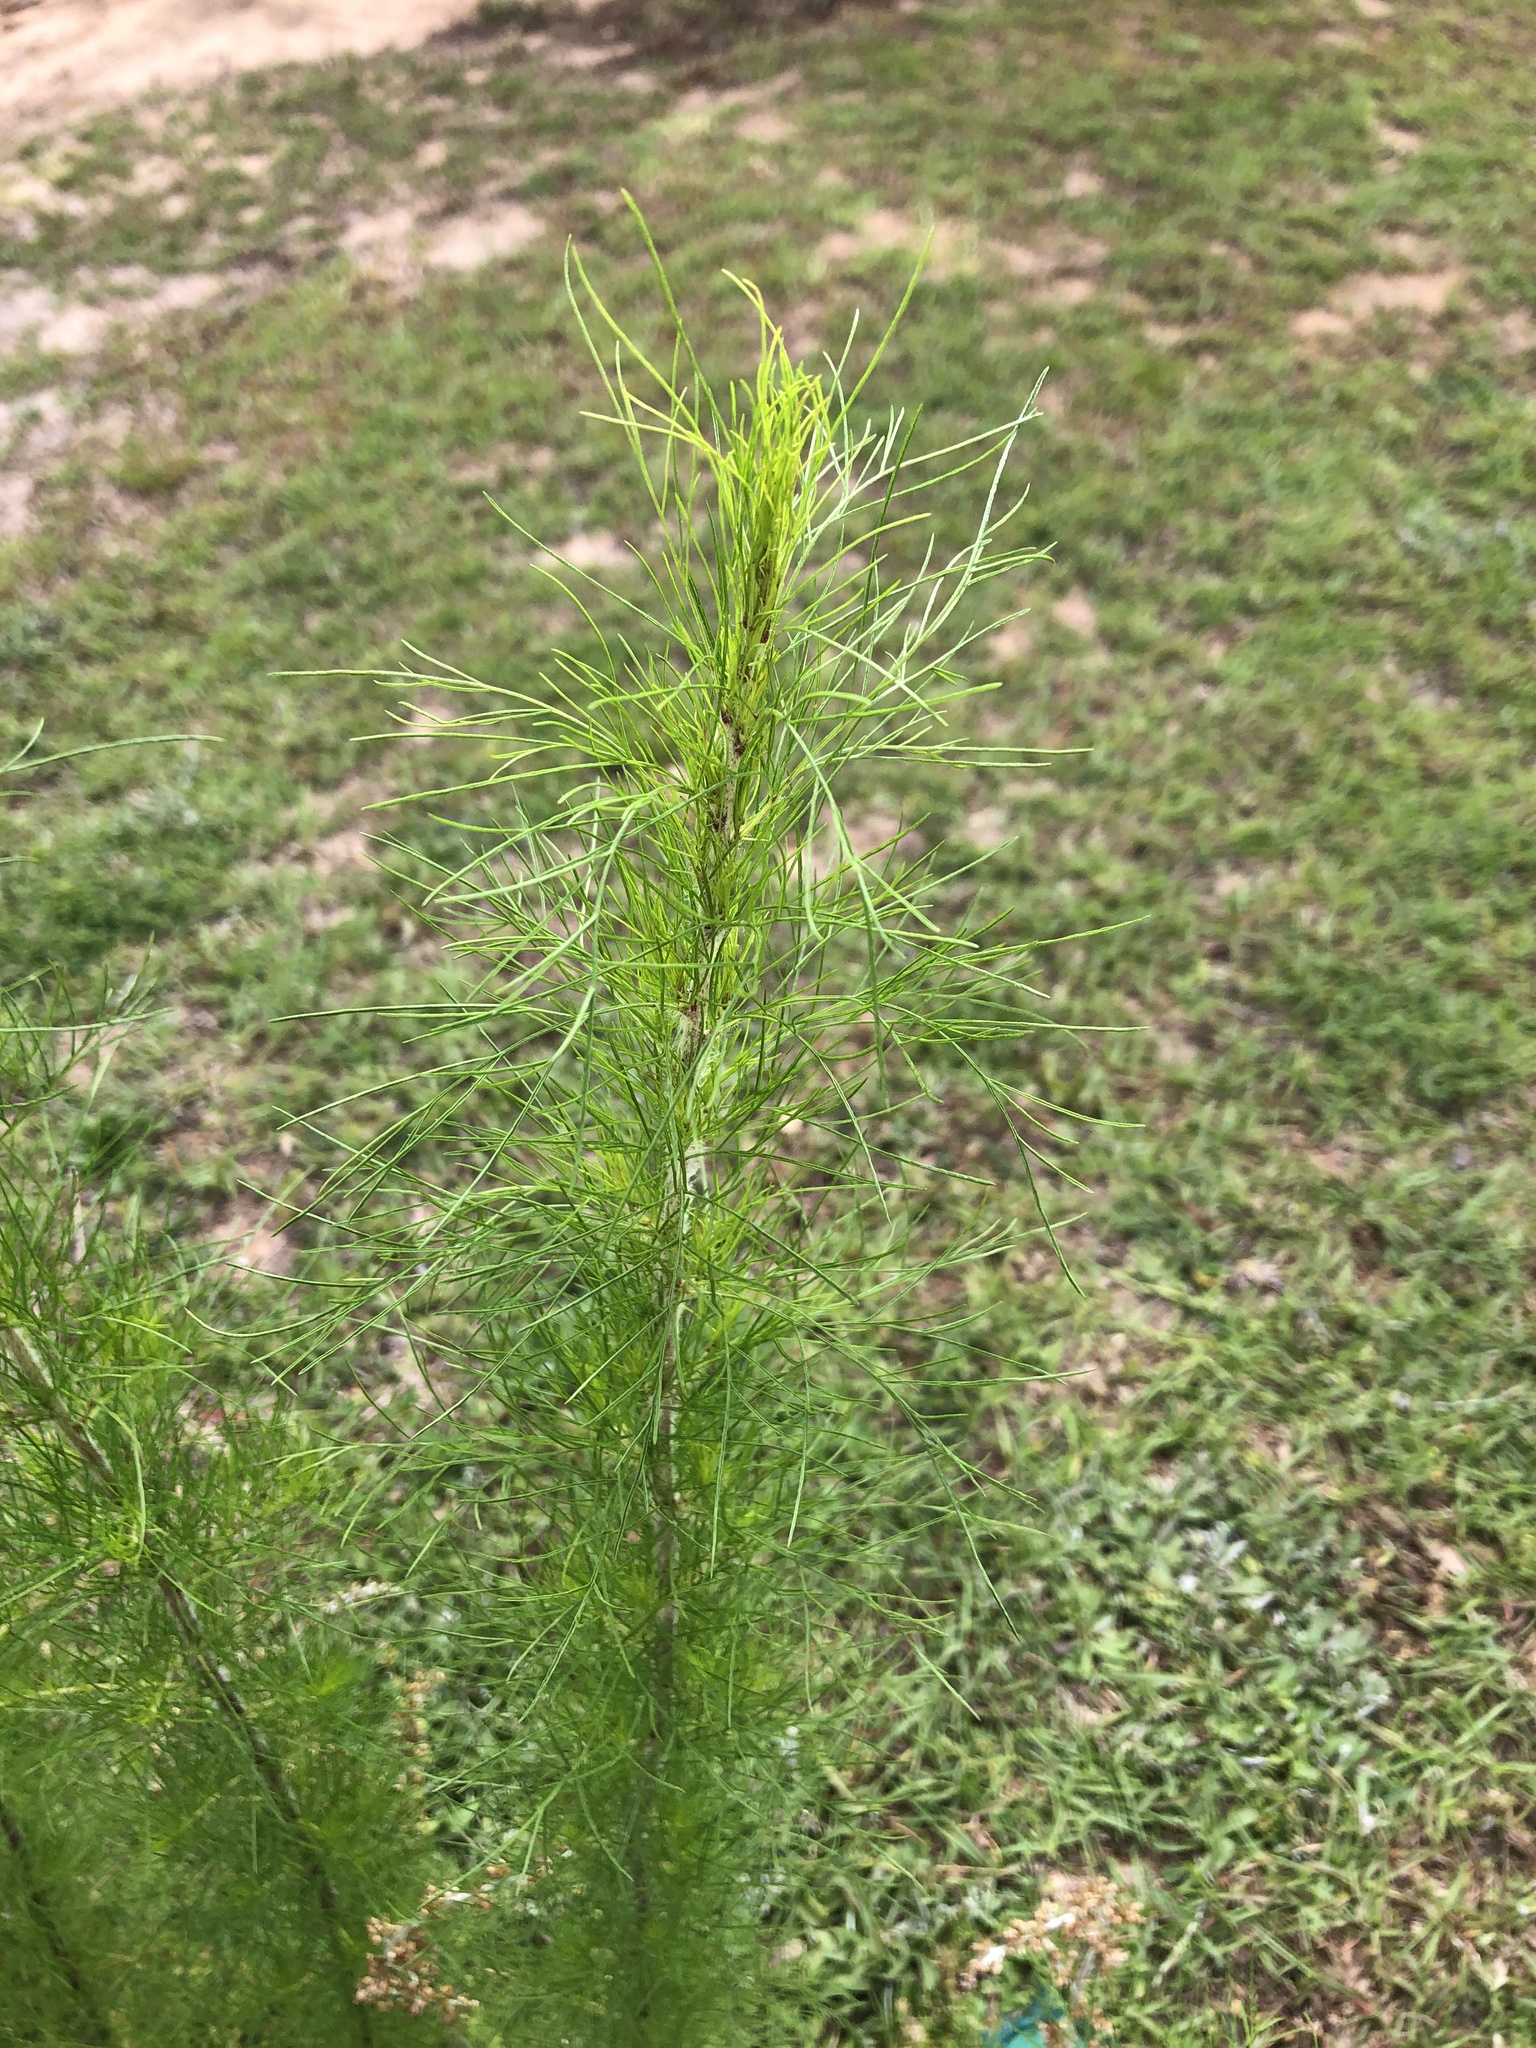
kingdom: Plantae
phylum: Tracheophyta
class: Magnoliopsida
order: Asterales
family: Asteraceae
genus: Eupatorium
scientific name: Eupatorium capillifolium
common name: Dog-fennel
